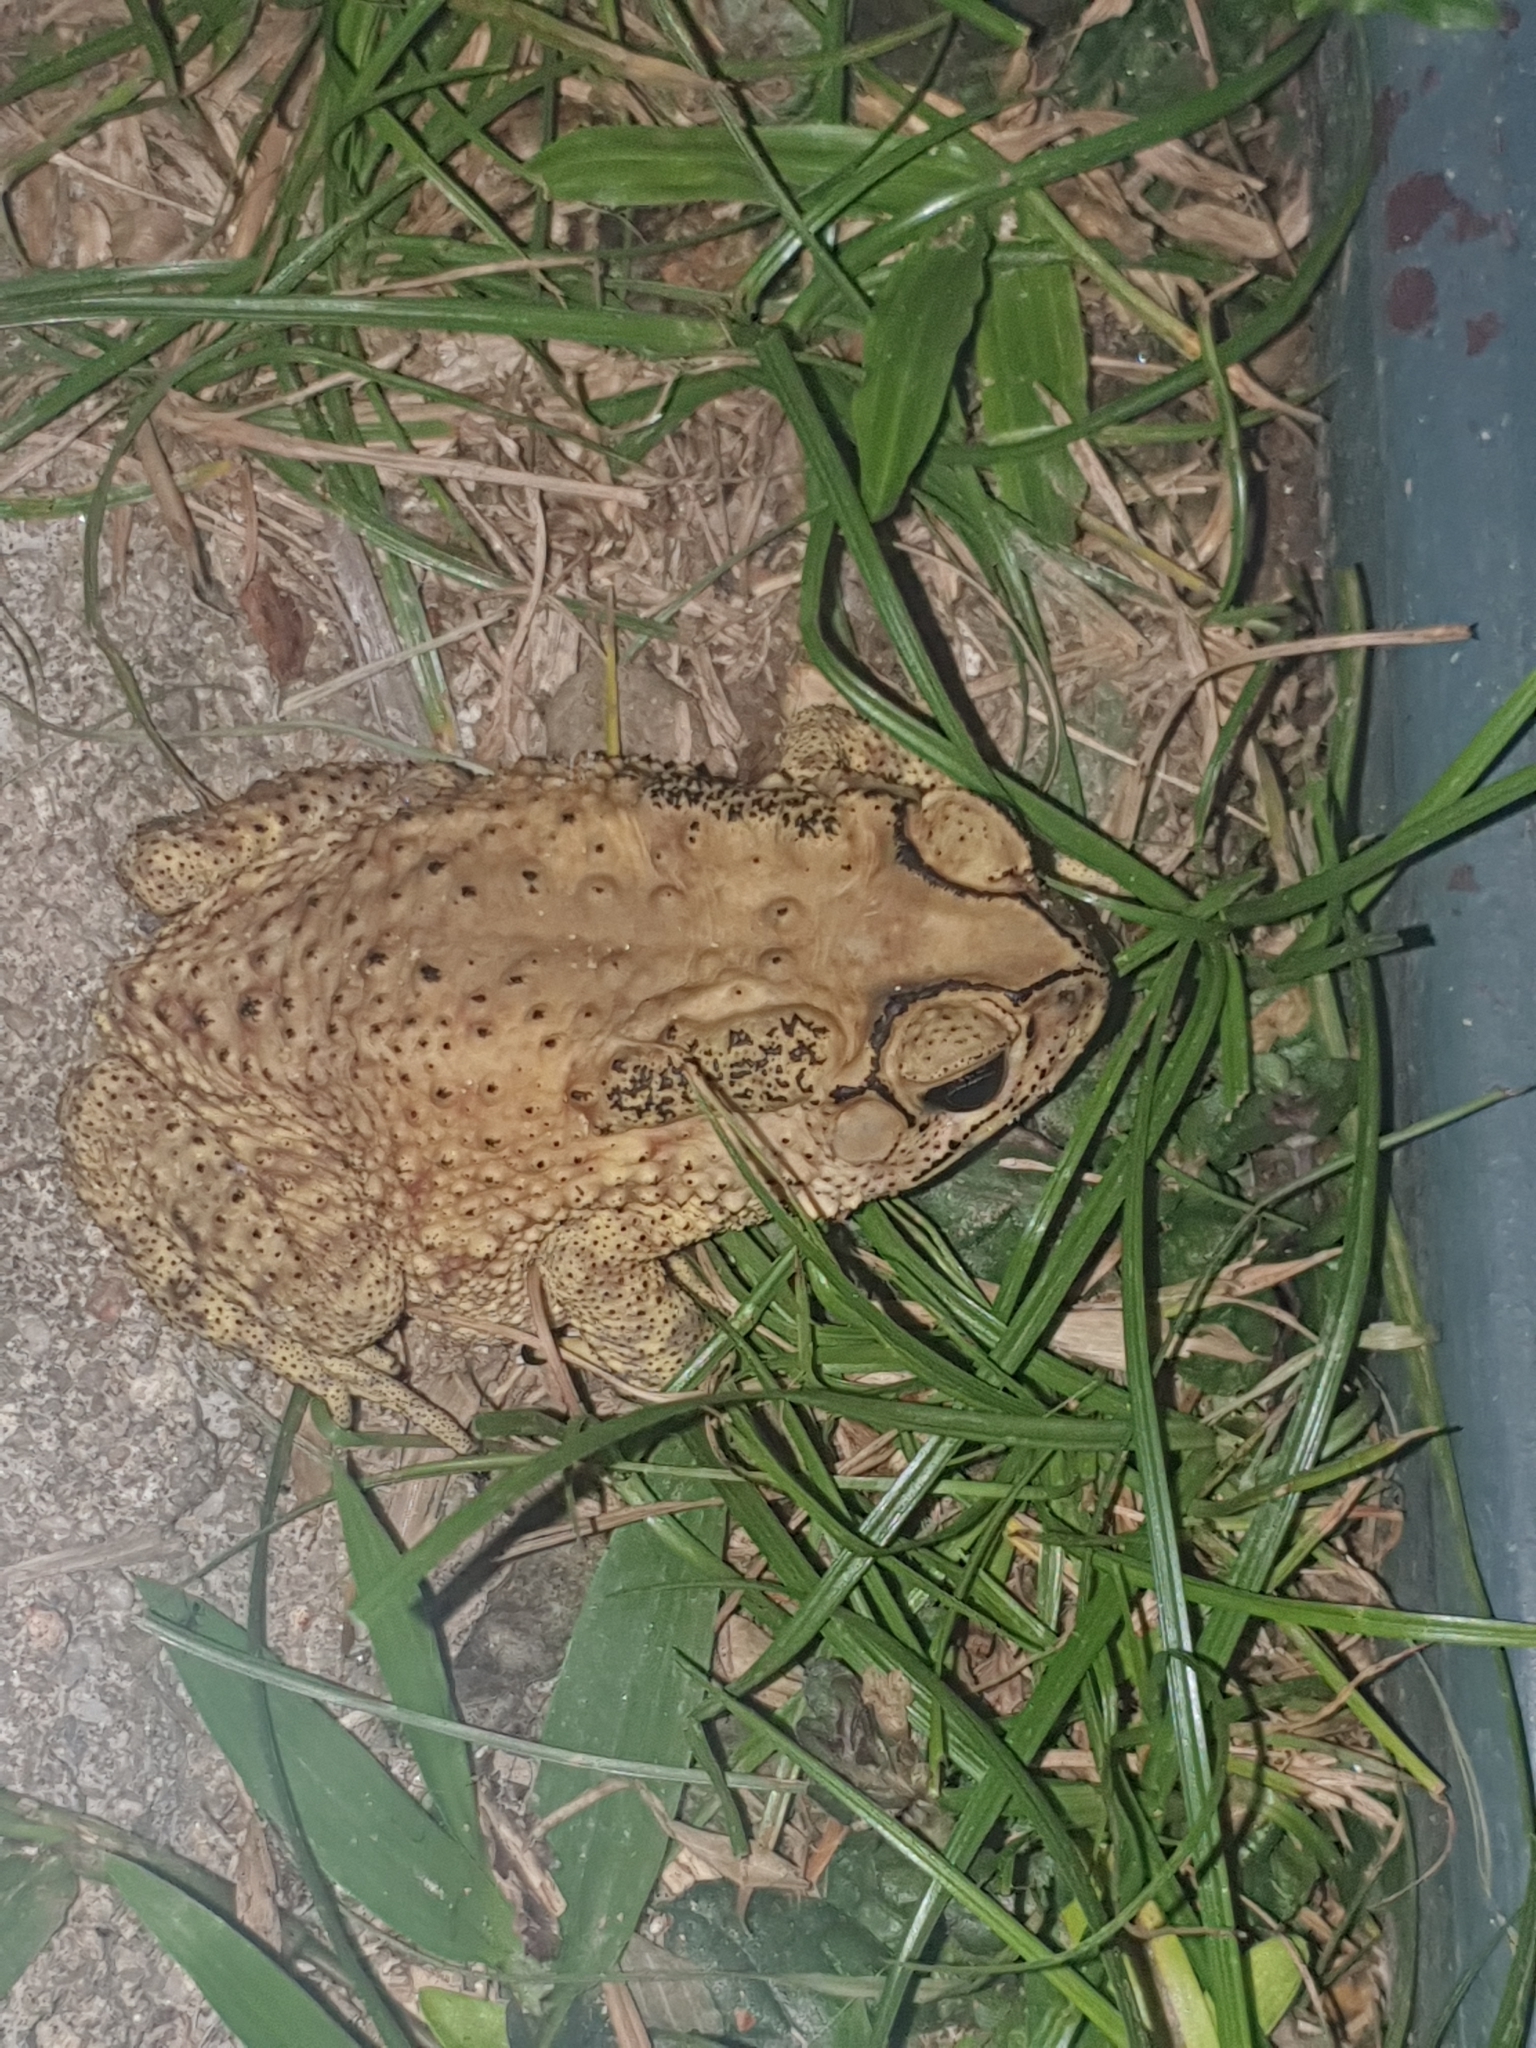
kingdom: Animalia
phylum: Chordata
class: Amphibia
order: Anura
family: Bufonidae
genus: Duttaphrynus
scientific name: Duttaphrynus melanostictus
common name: Common sunda toad
